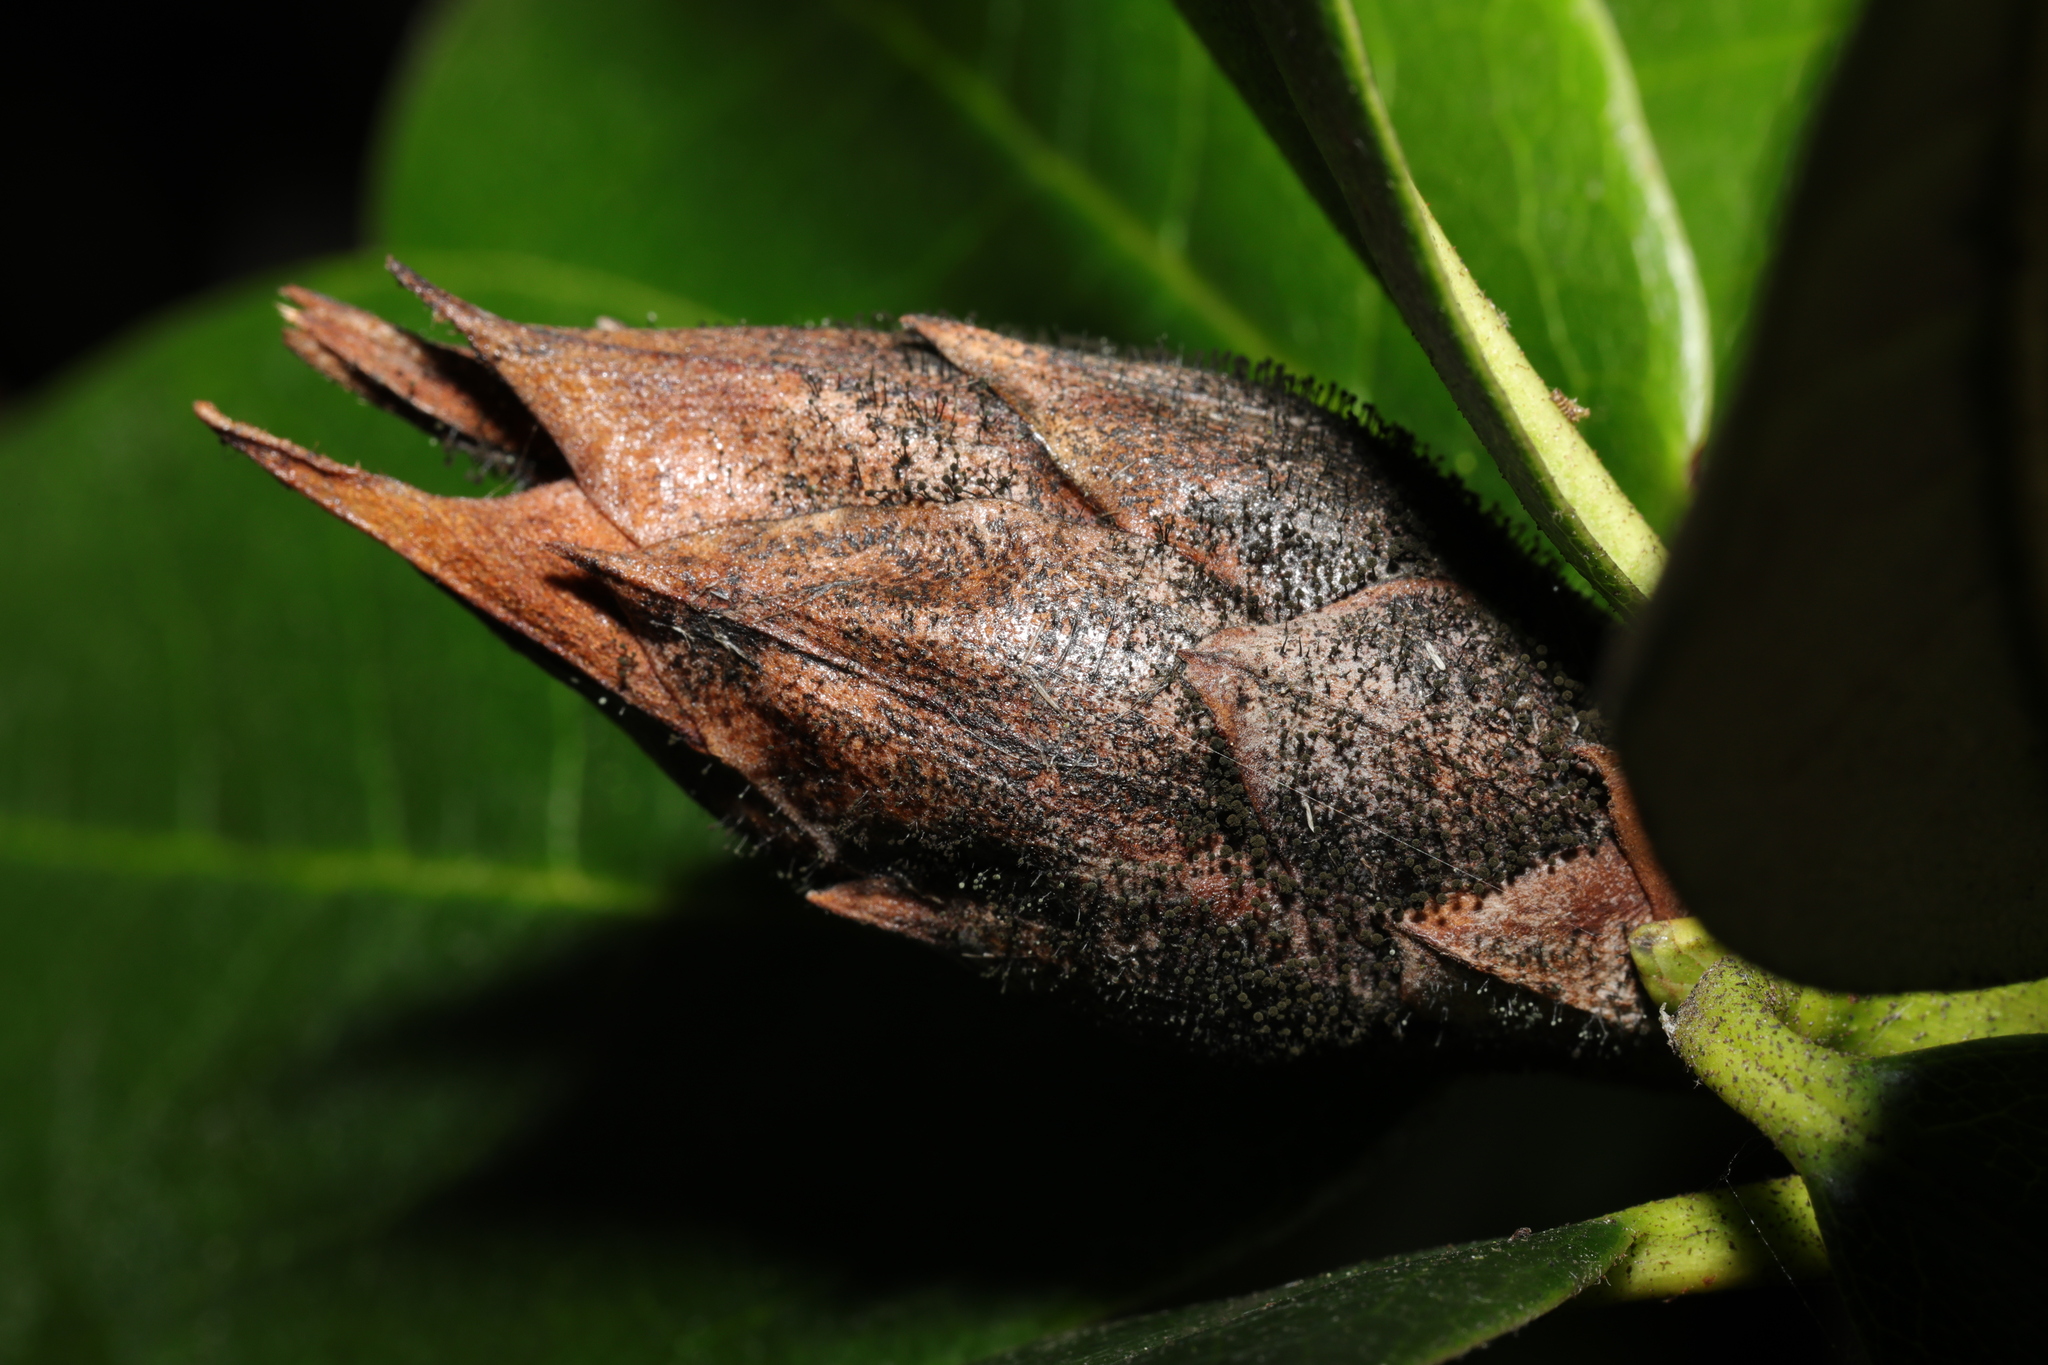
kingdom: Fungi
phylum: Ascomycota
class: Dothideomycetes
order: Pleosporales
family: Melanommataceae
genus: Seifertia
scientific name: Seifertia azaleae
